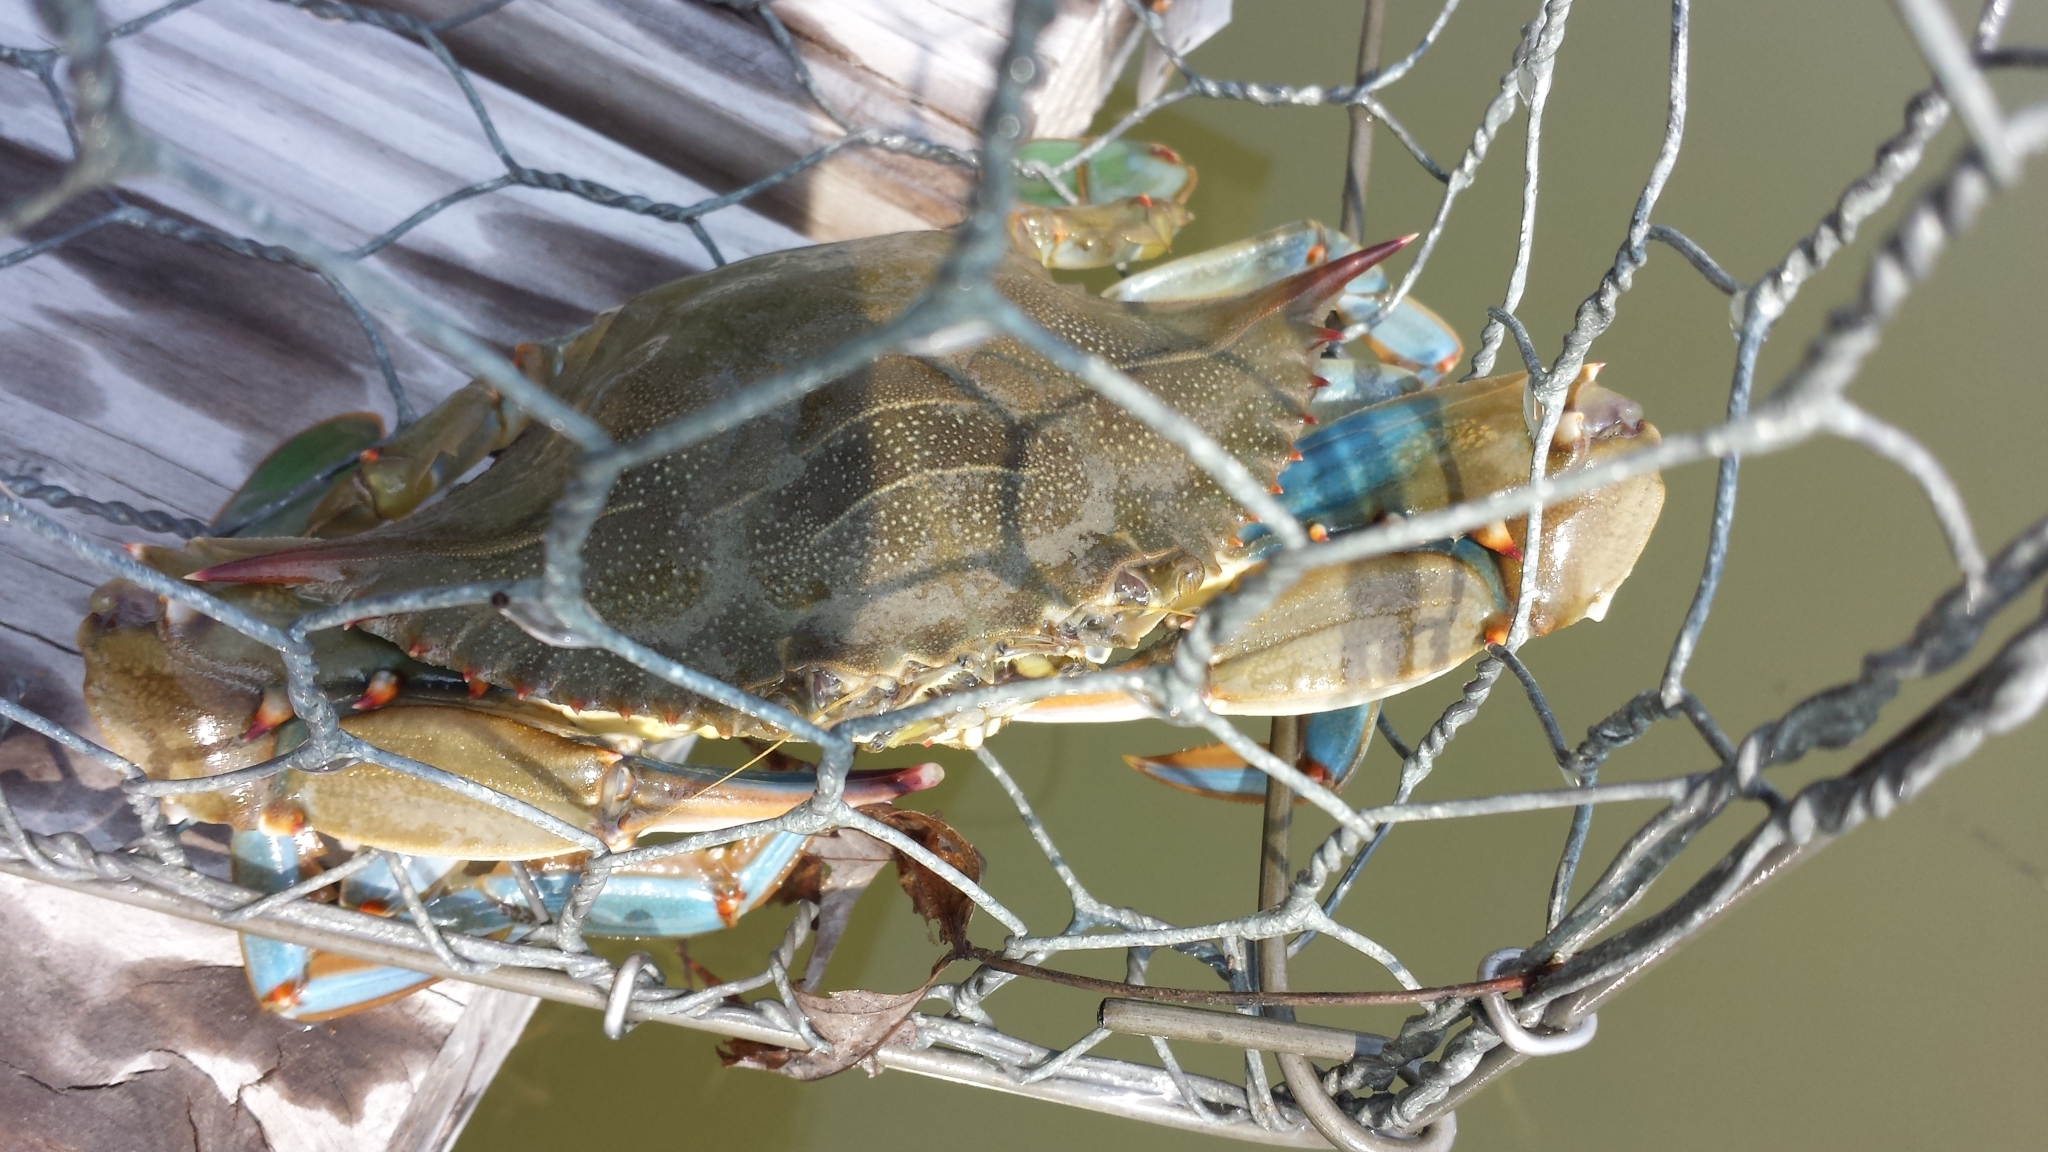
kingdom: Animalia
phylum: Arthropoda
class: Malacostraca
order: Decapoda
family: Portunidae
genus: Callinectes
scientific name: Callinectes sapidus
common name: Blue crab
